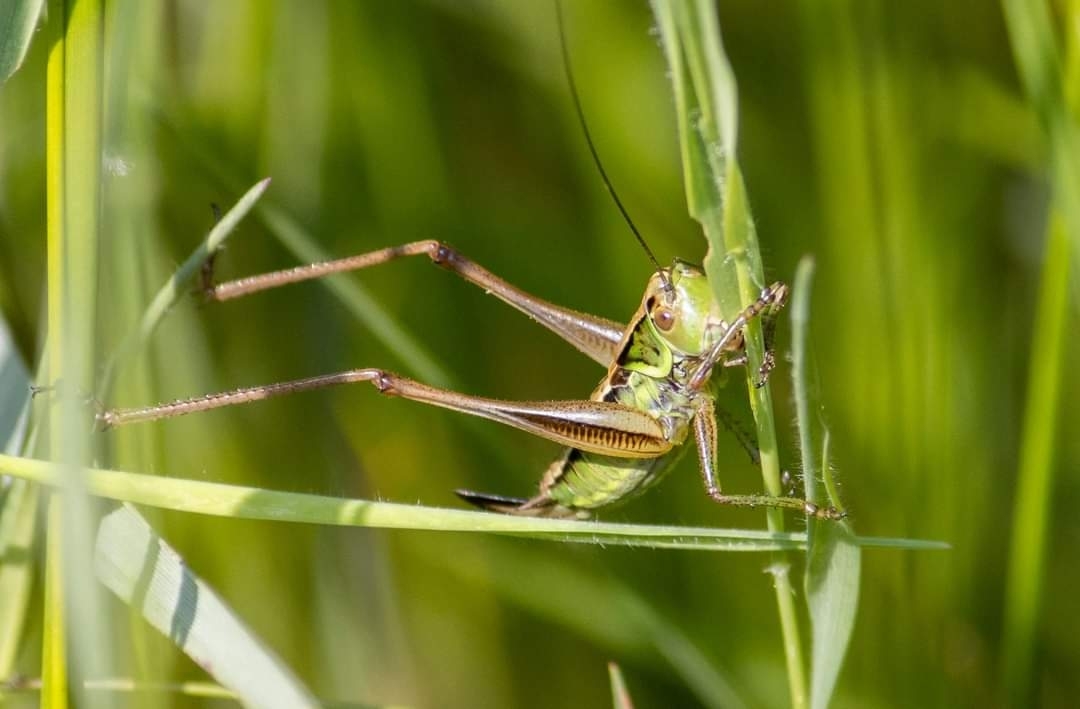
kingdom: Animalia
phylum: Arthropoda
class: Insecta
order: Orthoptera
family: Tettigoniidae
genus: Roeseliana
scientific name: Roeseliana roeselii
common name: Roesel's bush cricket
